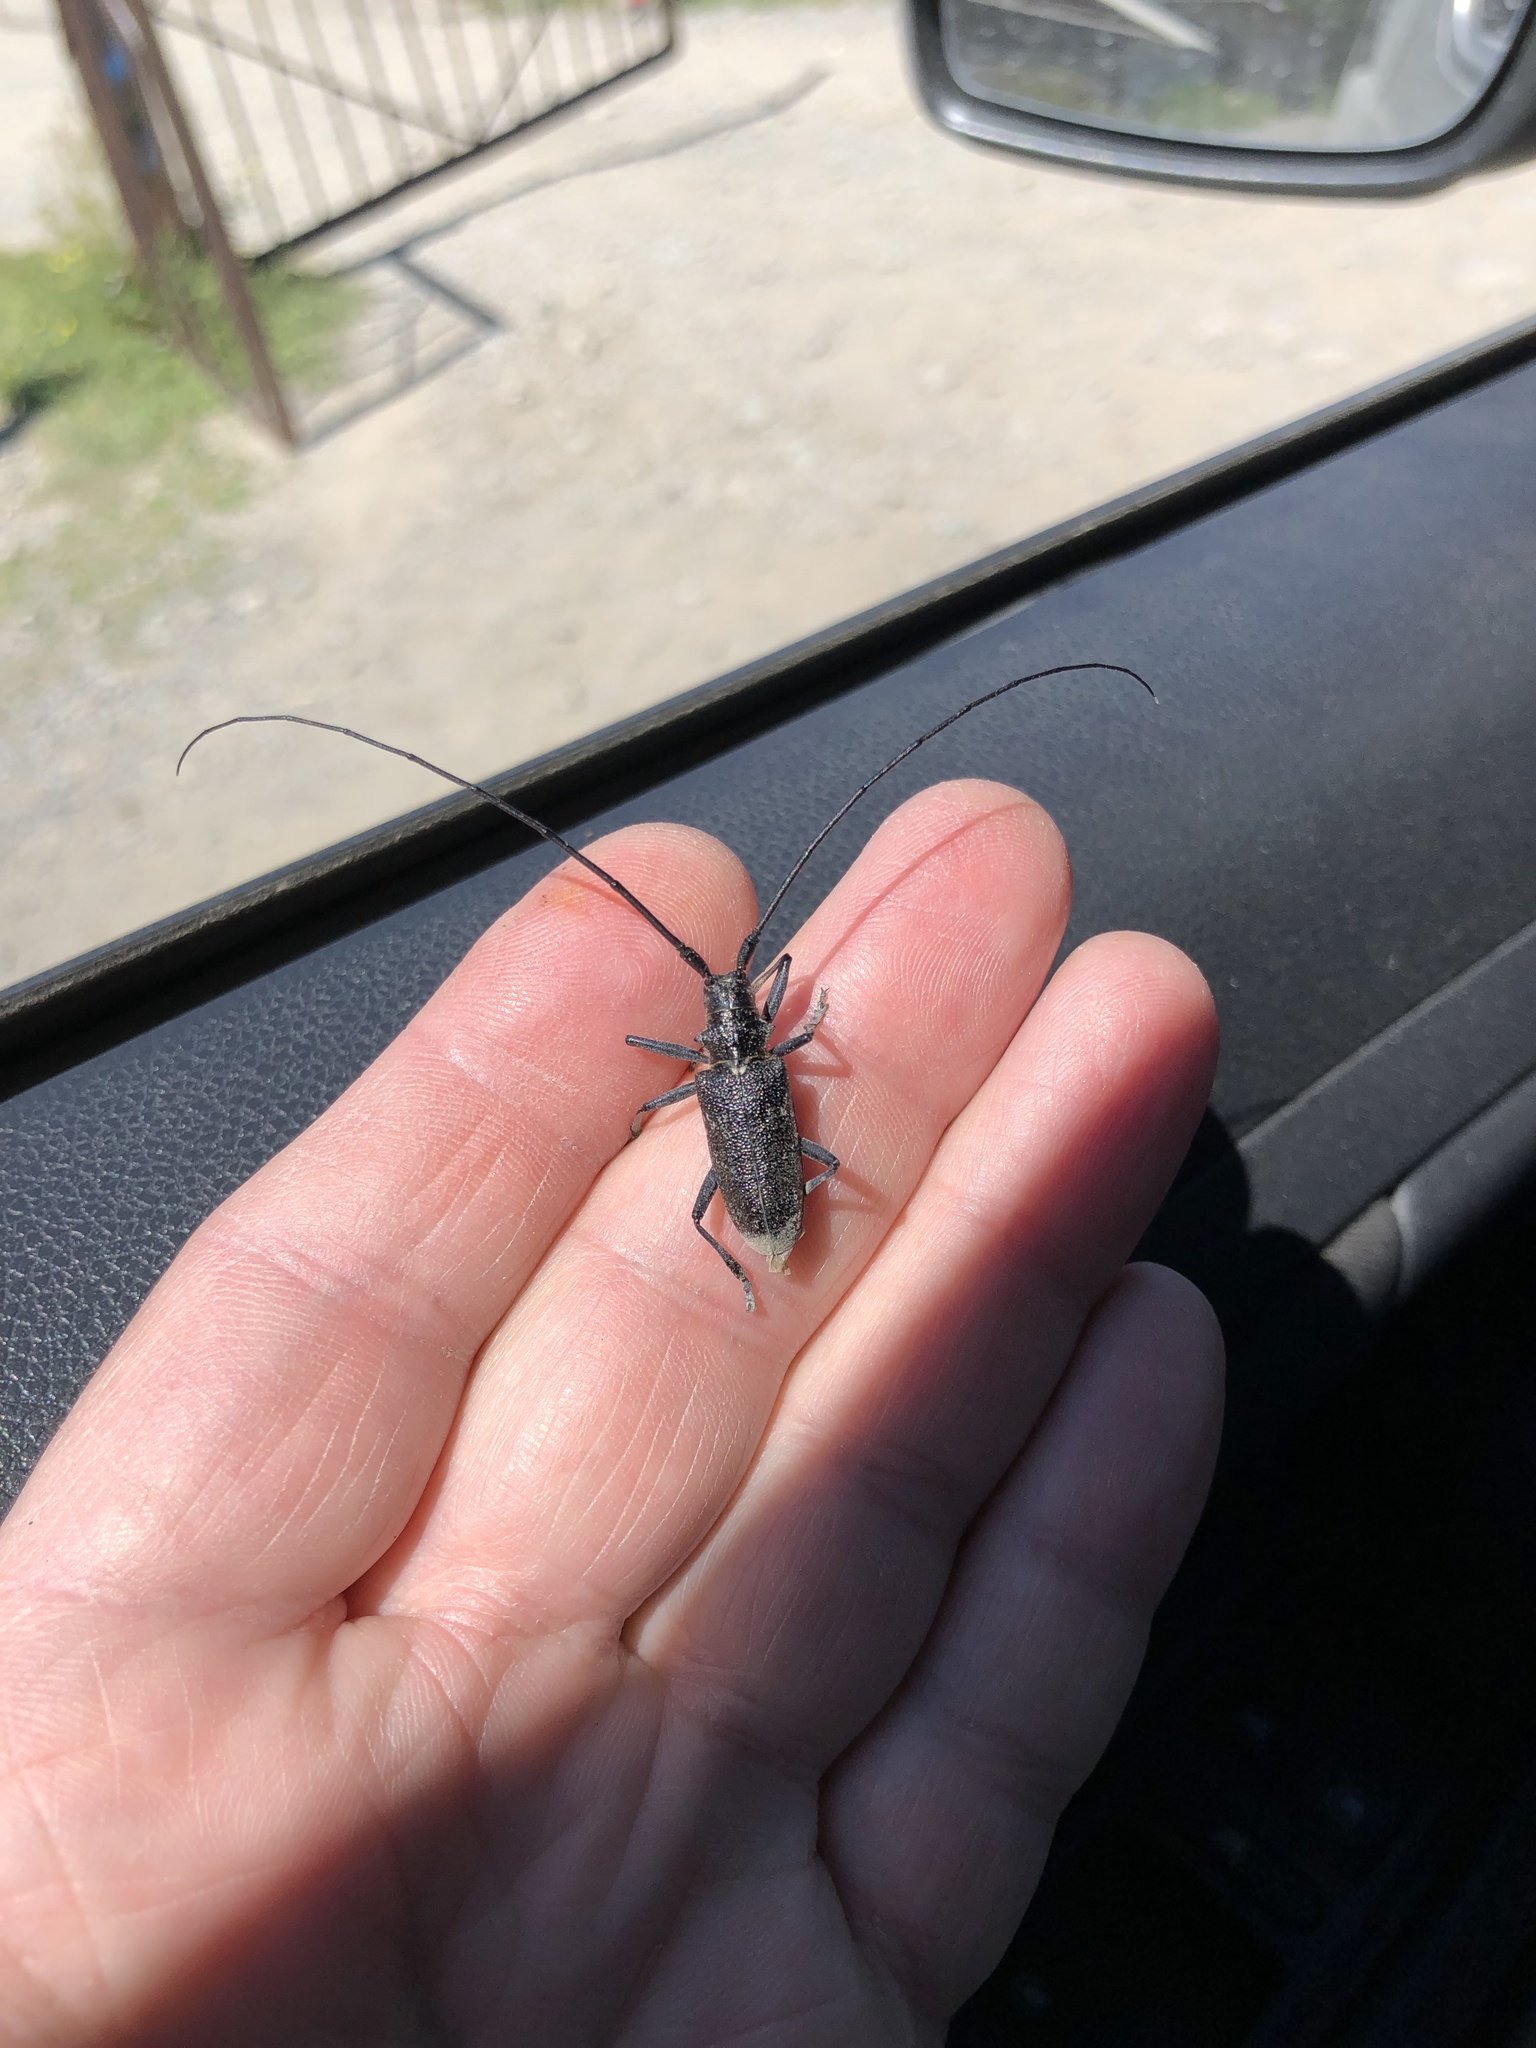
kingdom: Animalia
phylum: Arthropoda
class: Insecta
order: Coleoptera
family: Cerambycidae
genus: Monochamus
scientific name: Monochamus sutor
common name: Pine sawyer
